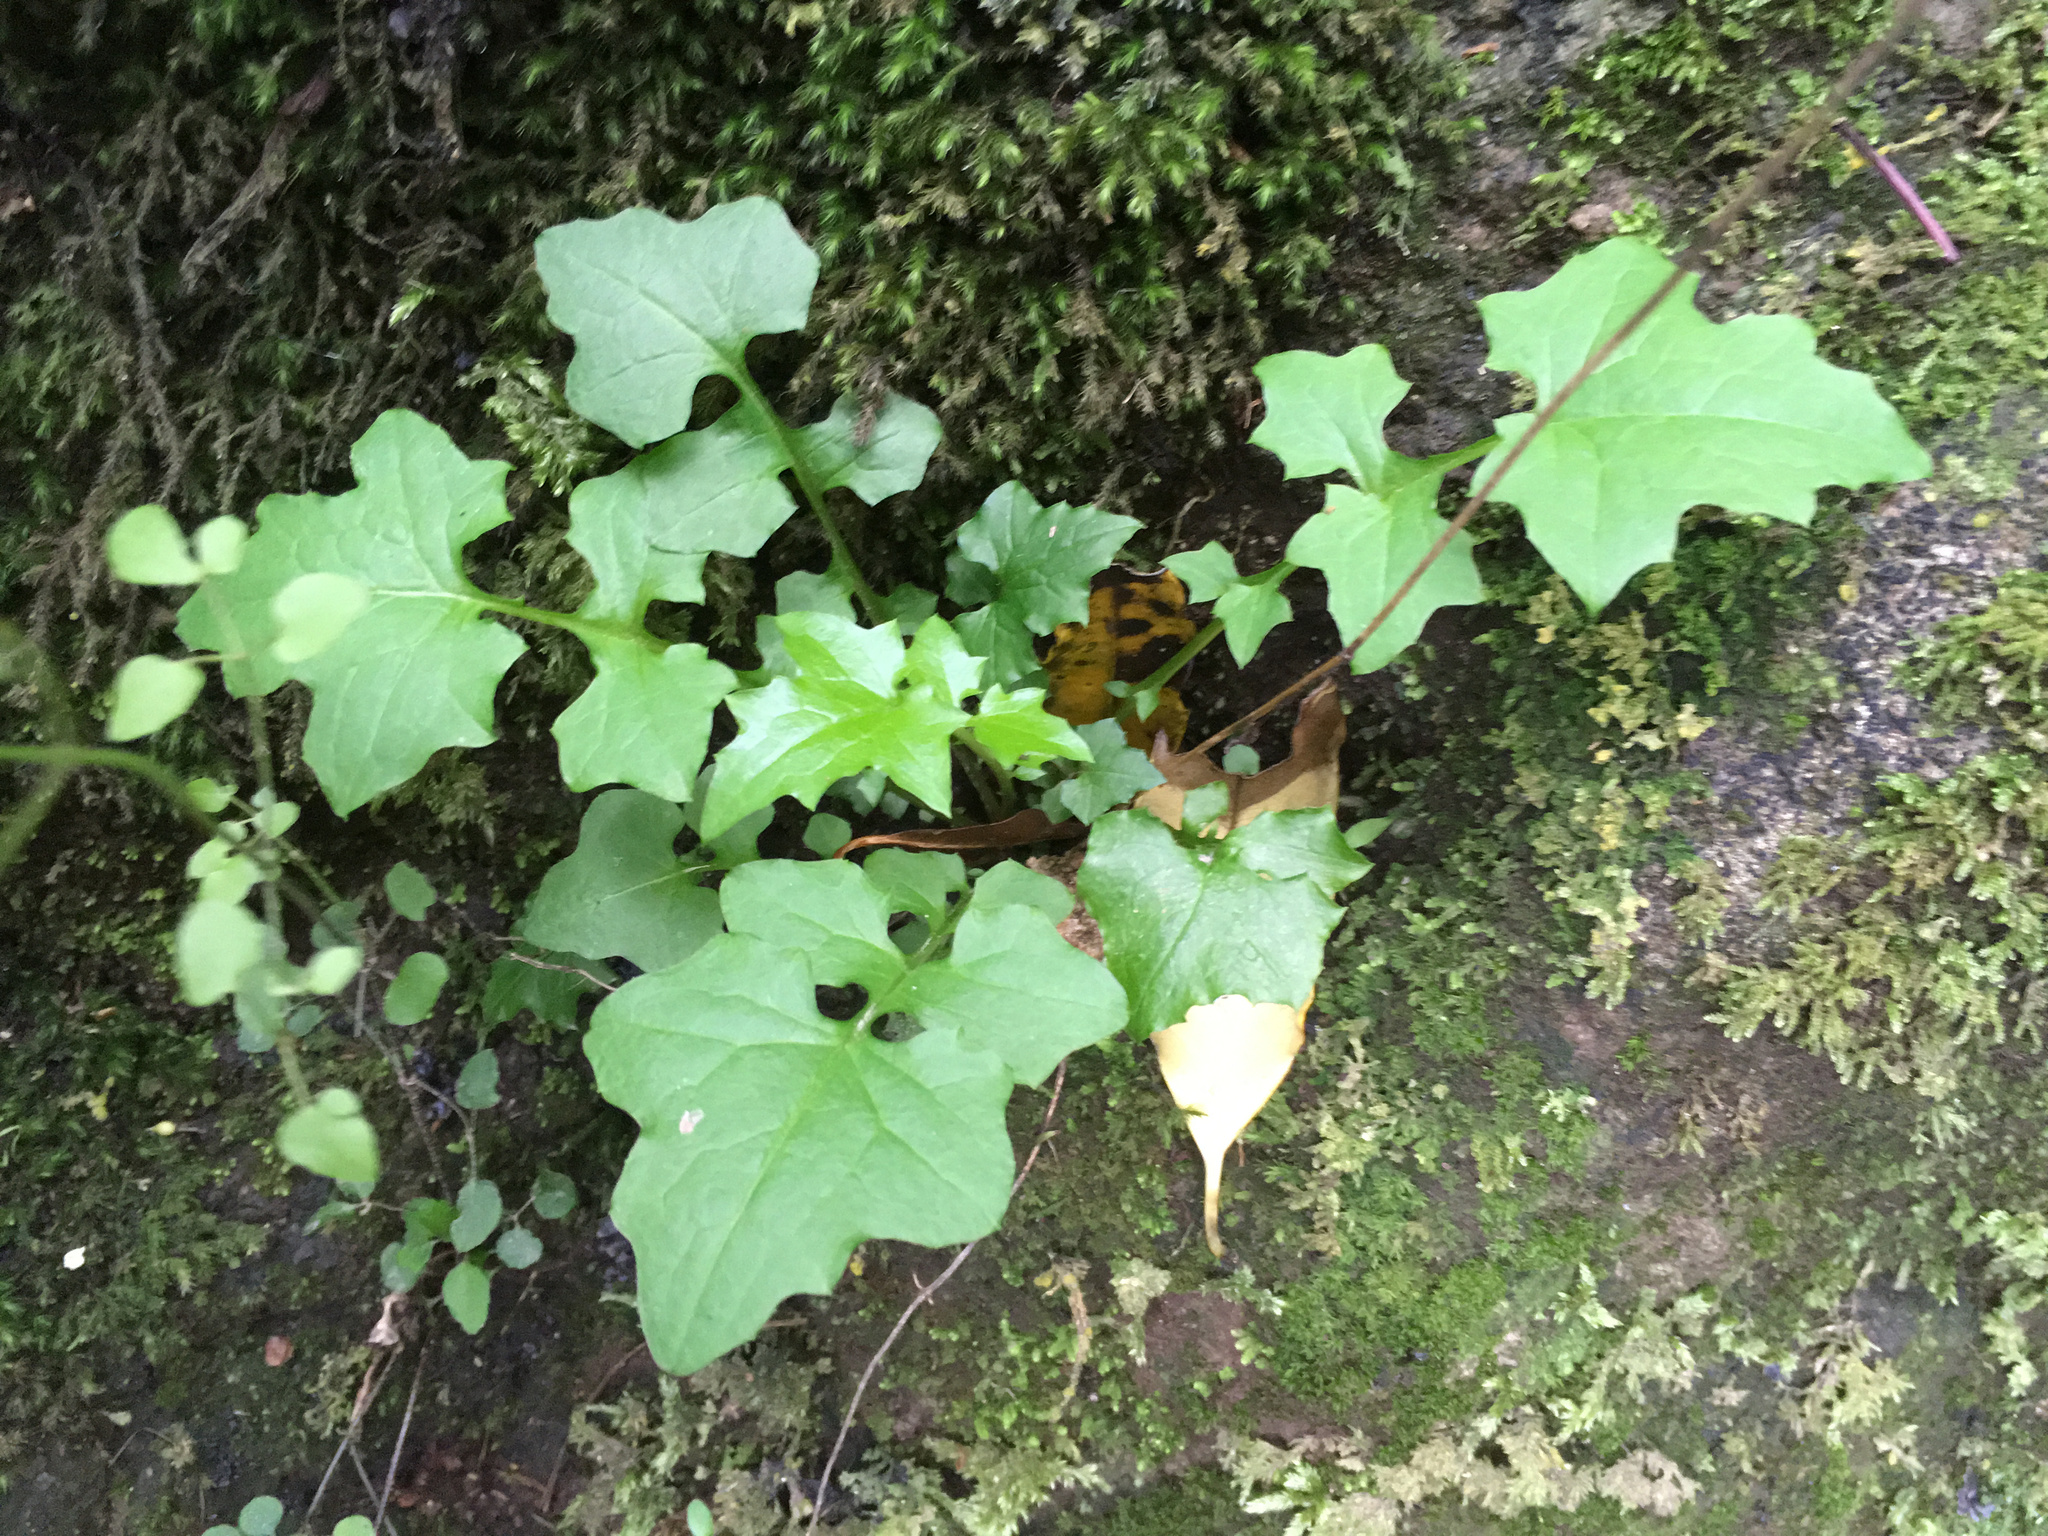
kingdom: Plantae
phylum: Tracheophyta
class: Magnoliopsida
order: Asterales
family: Asteraceae
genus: Mycelis
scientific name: Mycelis muralis
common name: Wall lettuce
